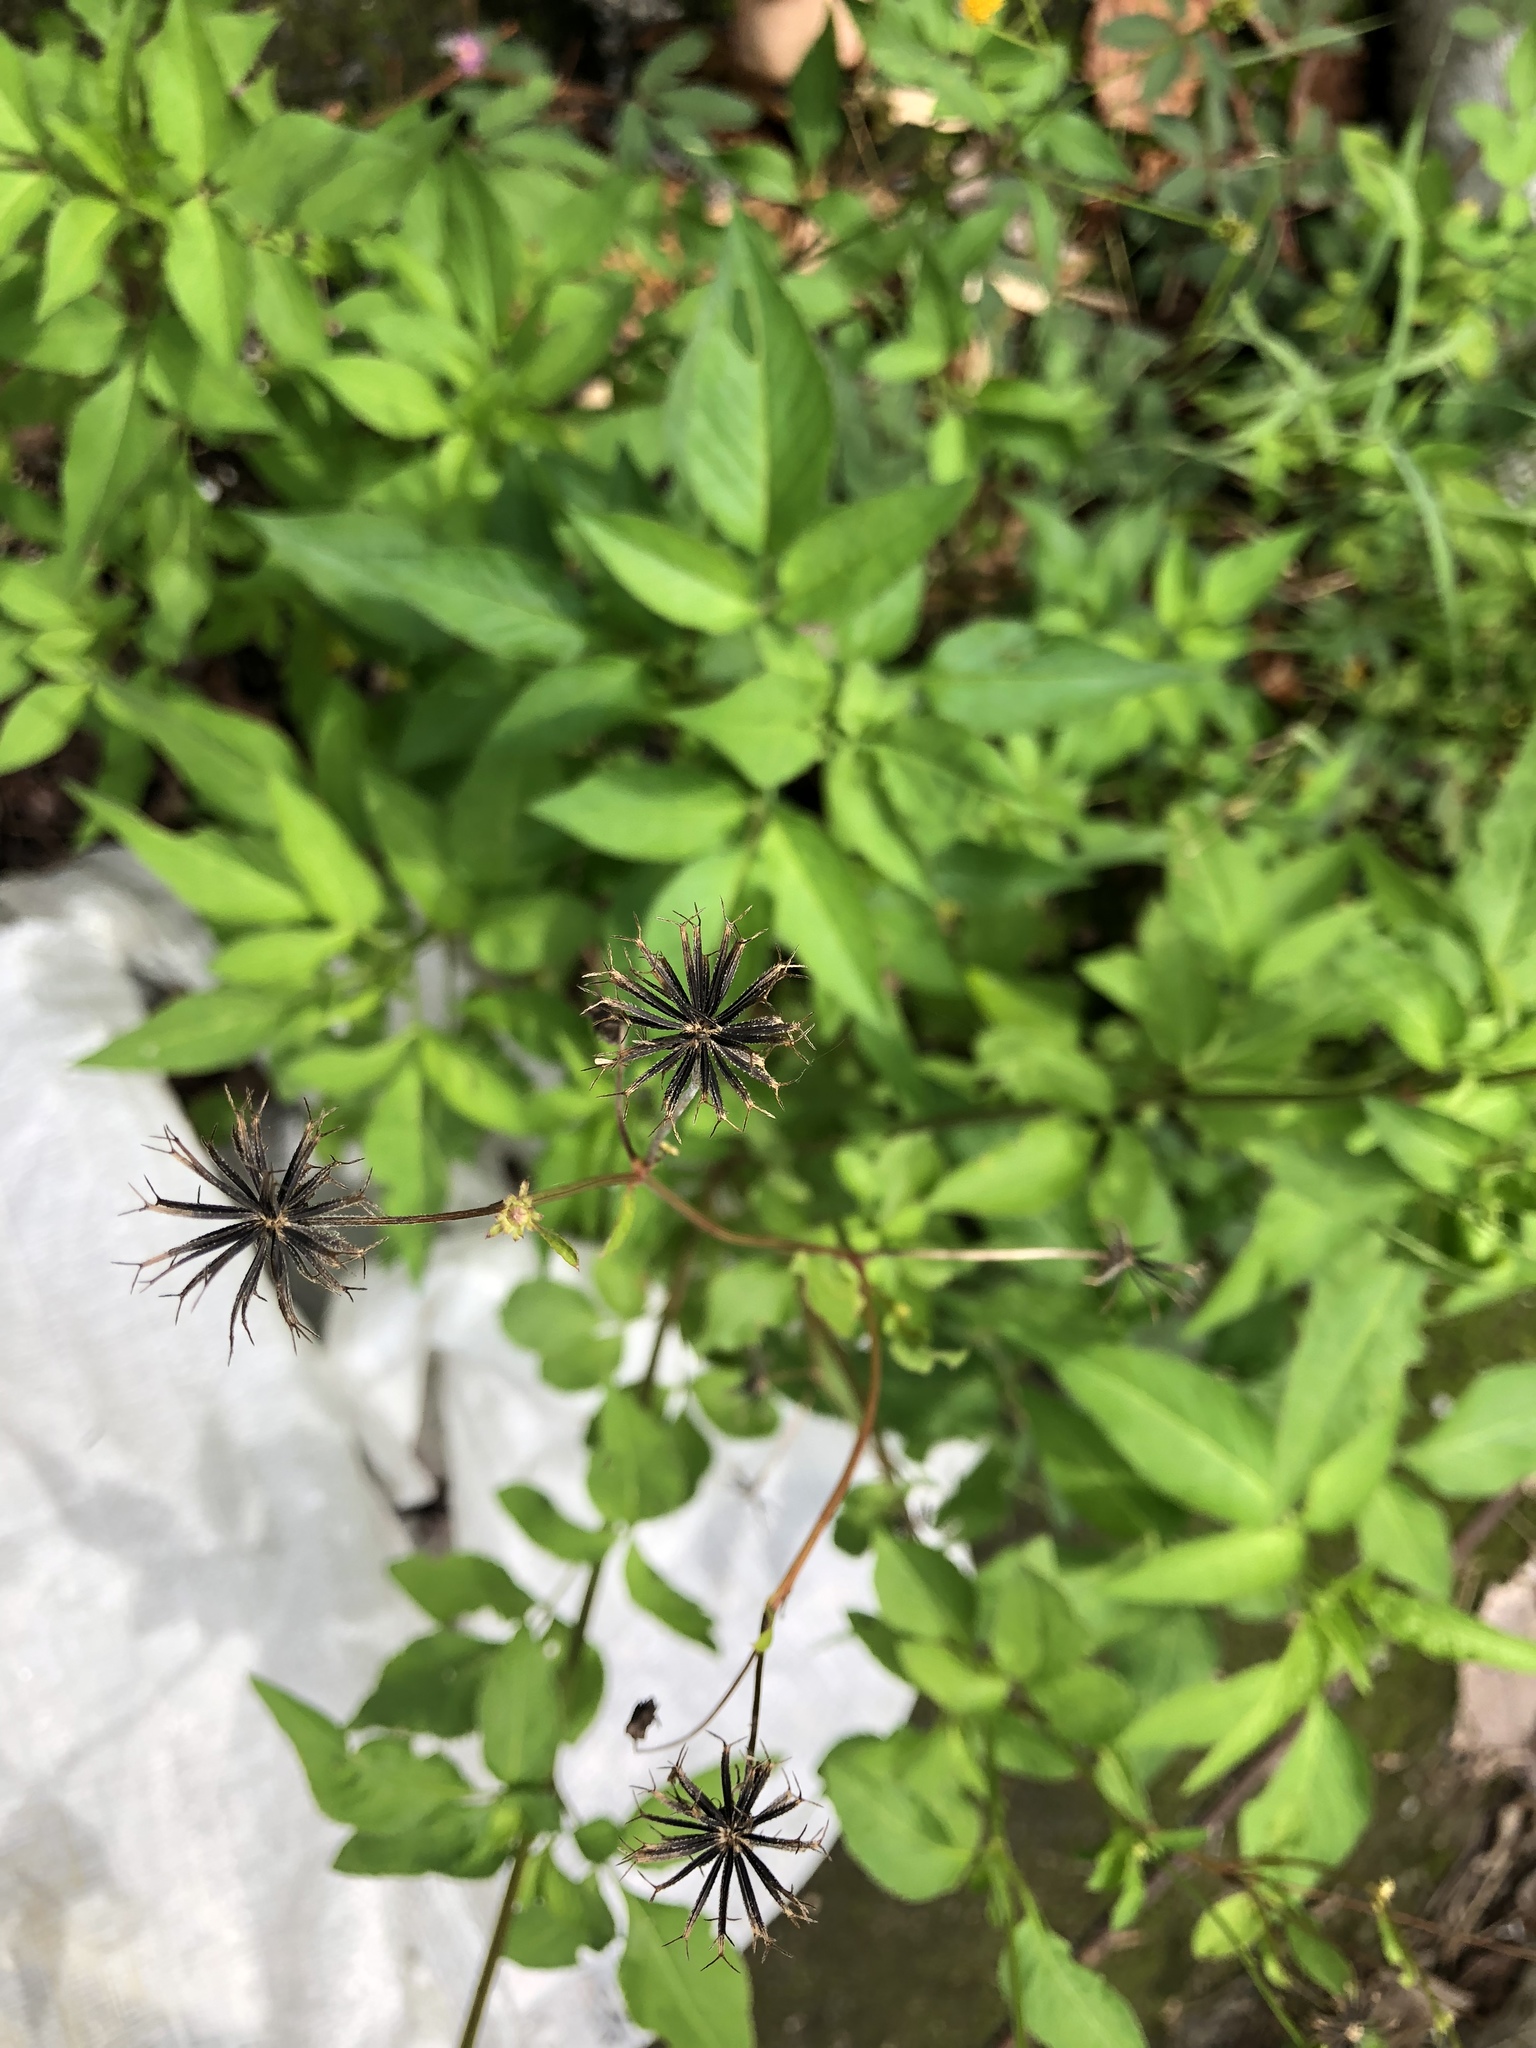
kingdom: Plantae
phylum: Tracheophyta
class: Magnoliopsida
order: Asterales
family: Asteraceae
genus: Bidens
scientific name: Bidens alba
